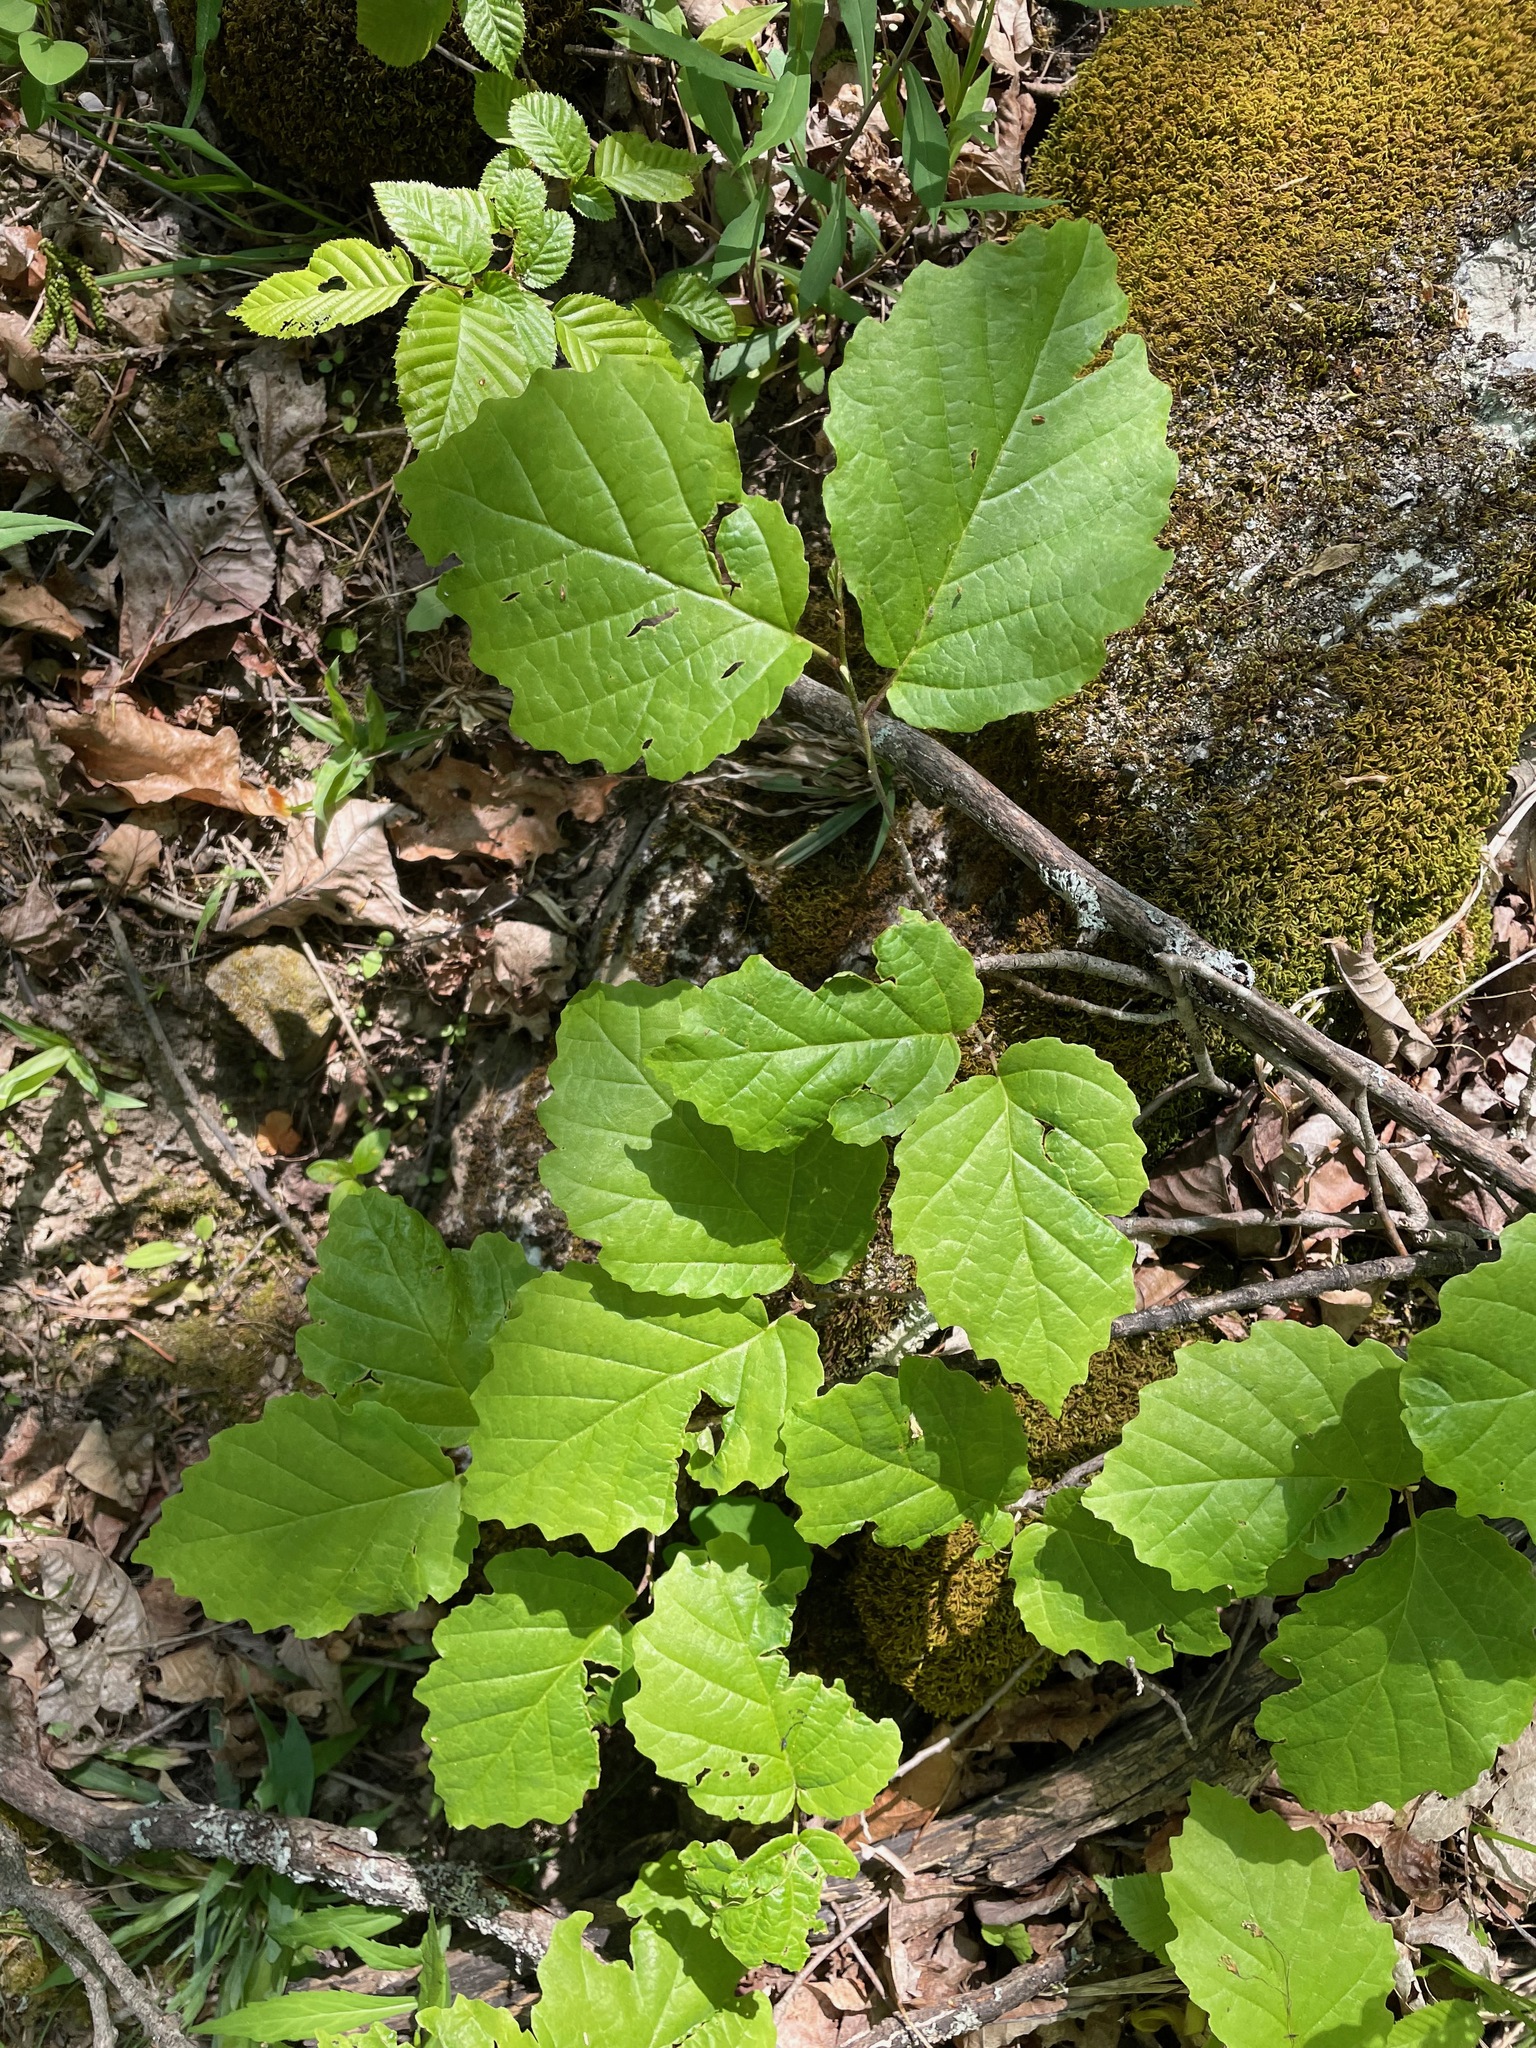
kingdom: Plantae
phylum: Tracheophyta
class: Magnoliopsida
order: Saxifragales
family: Hamamelidaceae
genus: Hamamelis
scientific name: Hamamelis virginiana
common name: Witch-hazel
